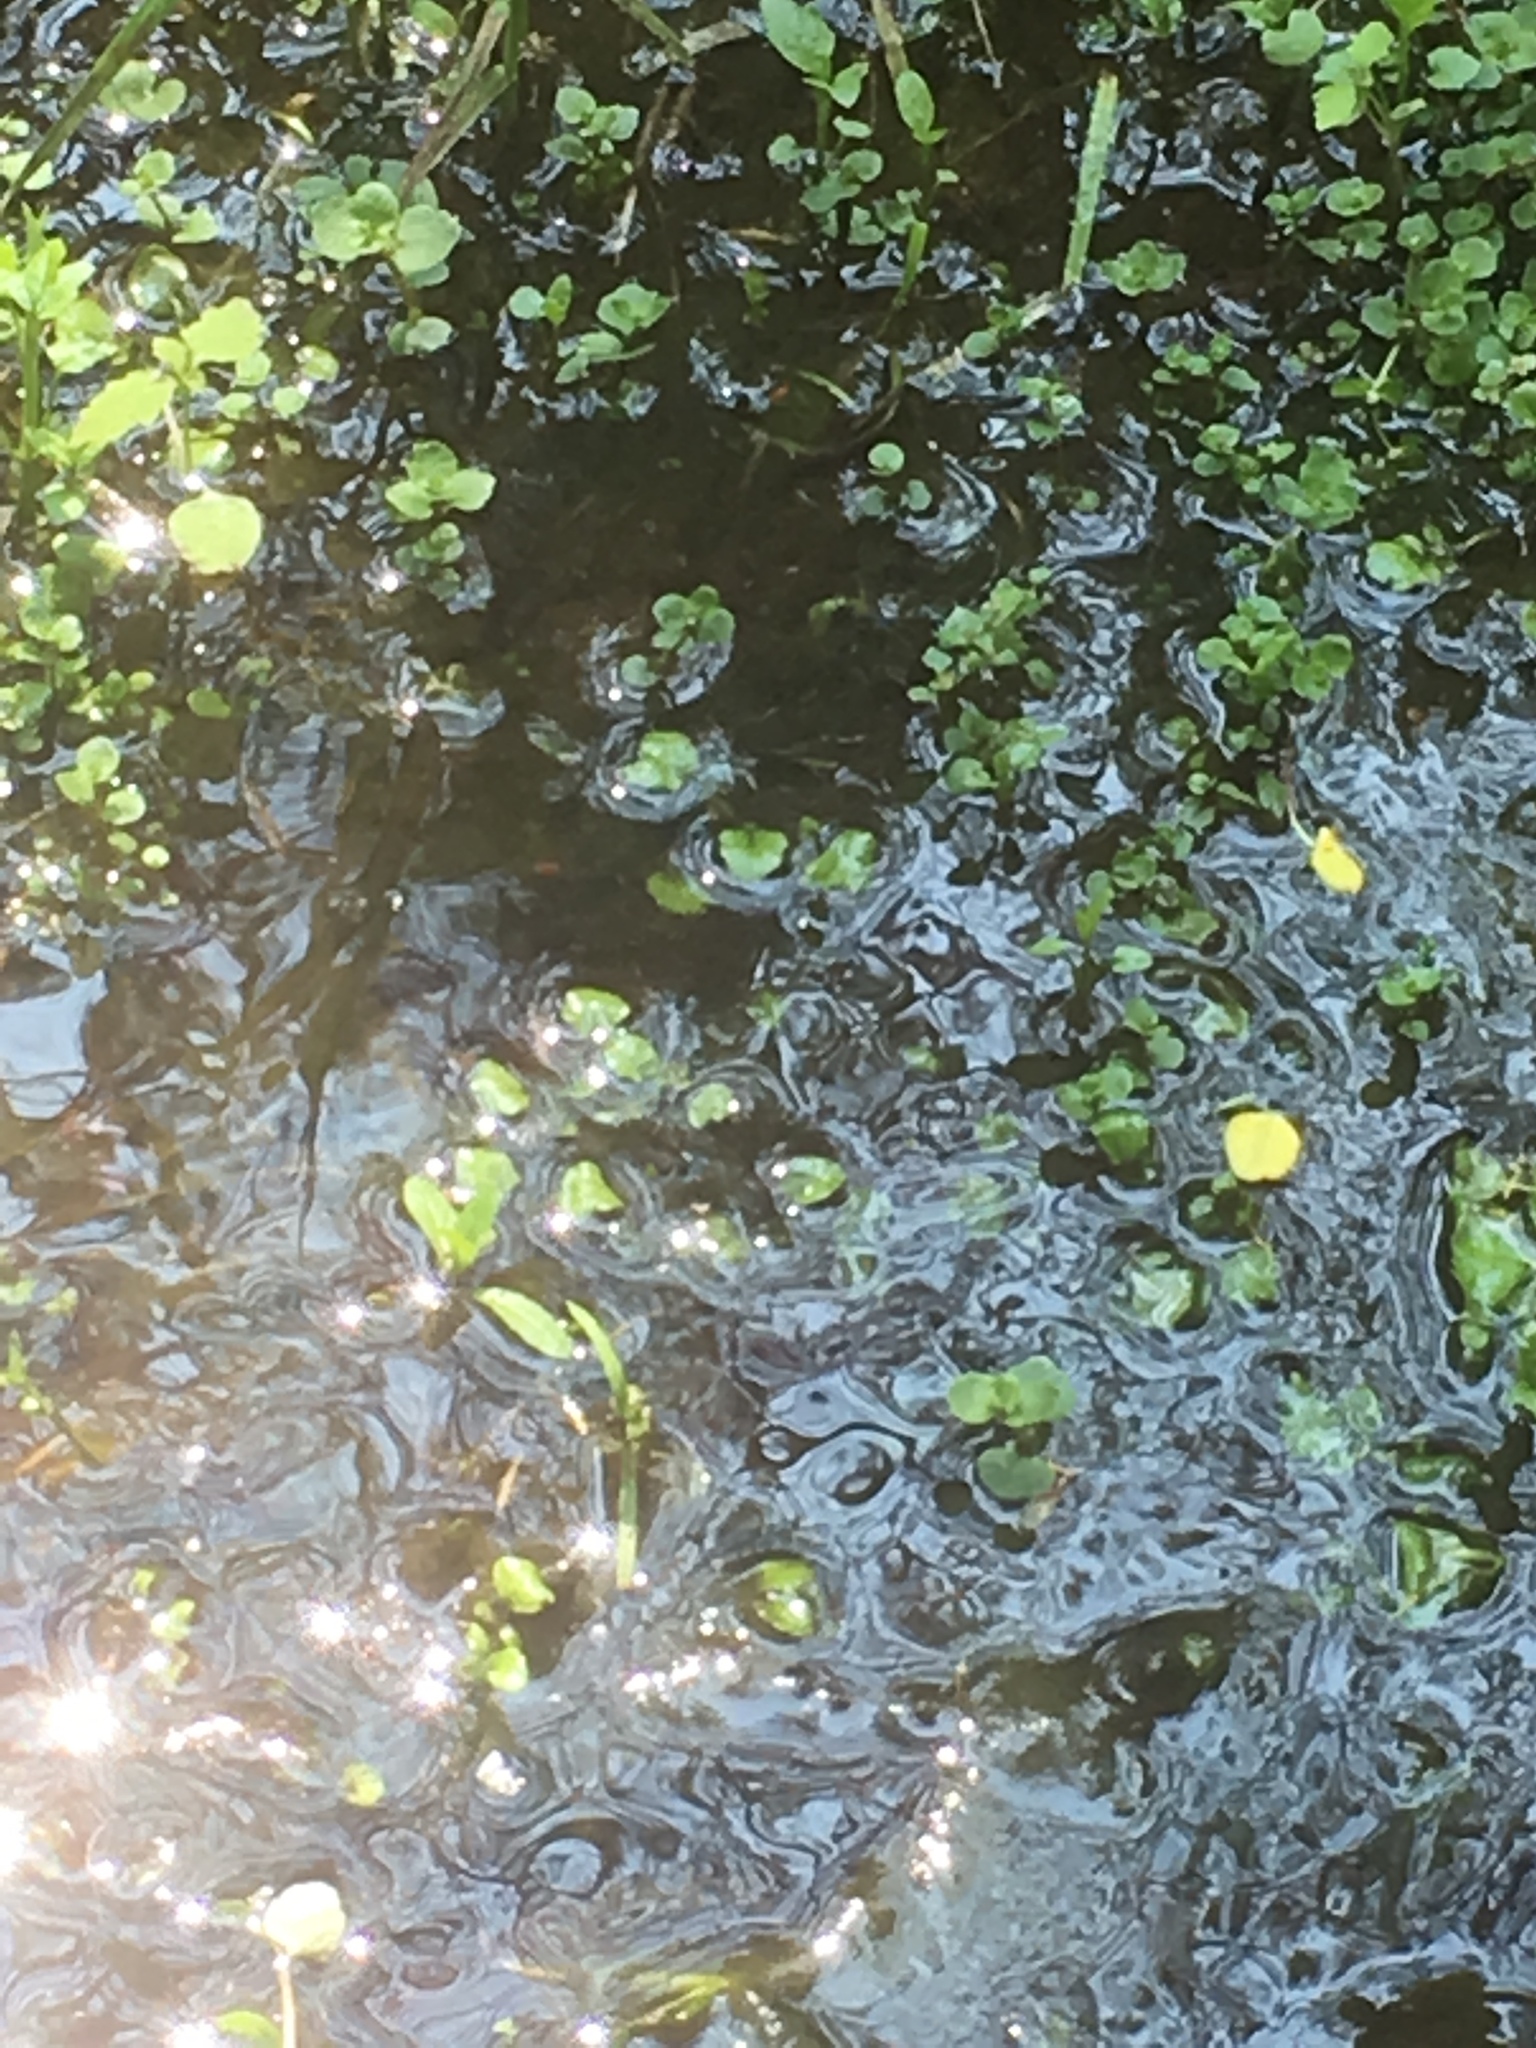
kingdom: Plantae
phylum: Tracheophyta
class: Magnoliopsida
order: Saxifragales
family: Saxifragaceae
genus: Chrysosplenium
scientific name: Chrysosplenium americanum
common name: American golden-saxifrage
